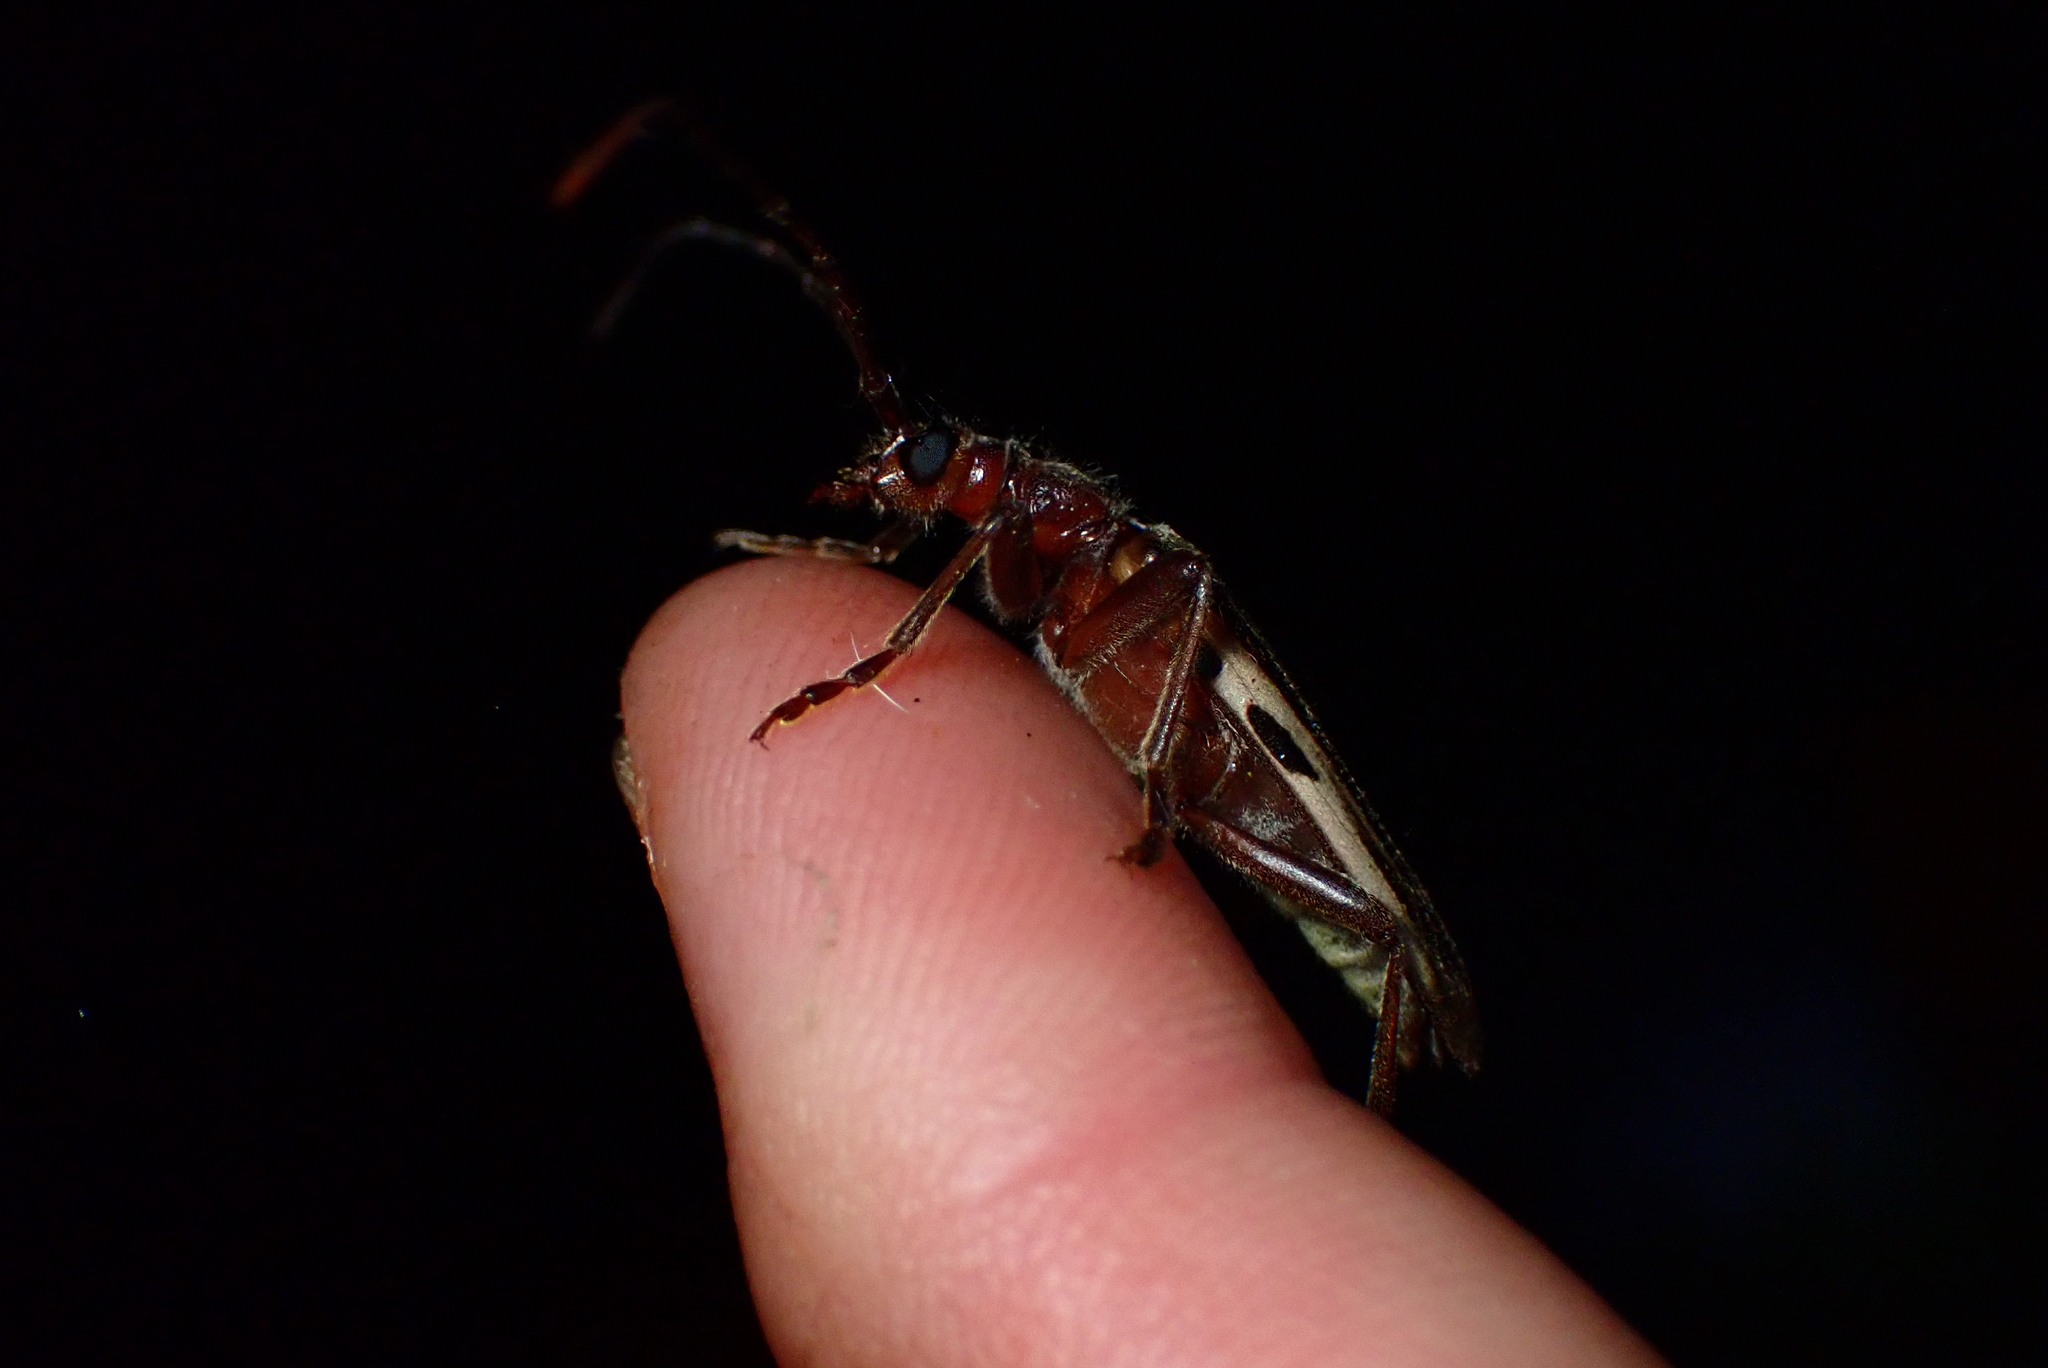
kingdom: Animalia
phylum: Arthropoda
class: Insecta
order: Coleoptera
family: Cerambycidae
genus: Ortholeptura
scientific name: Ortholeptura insignis
